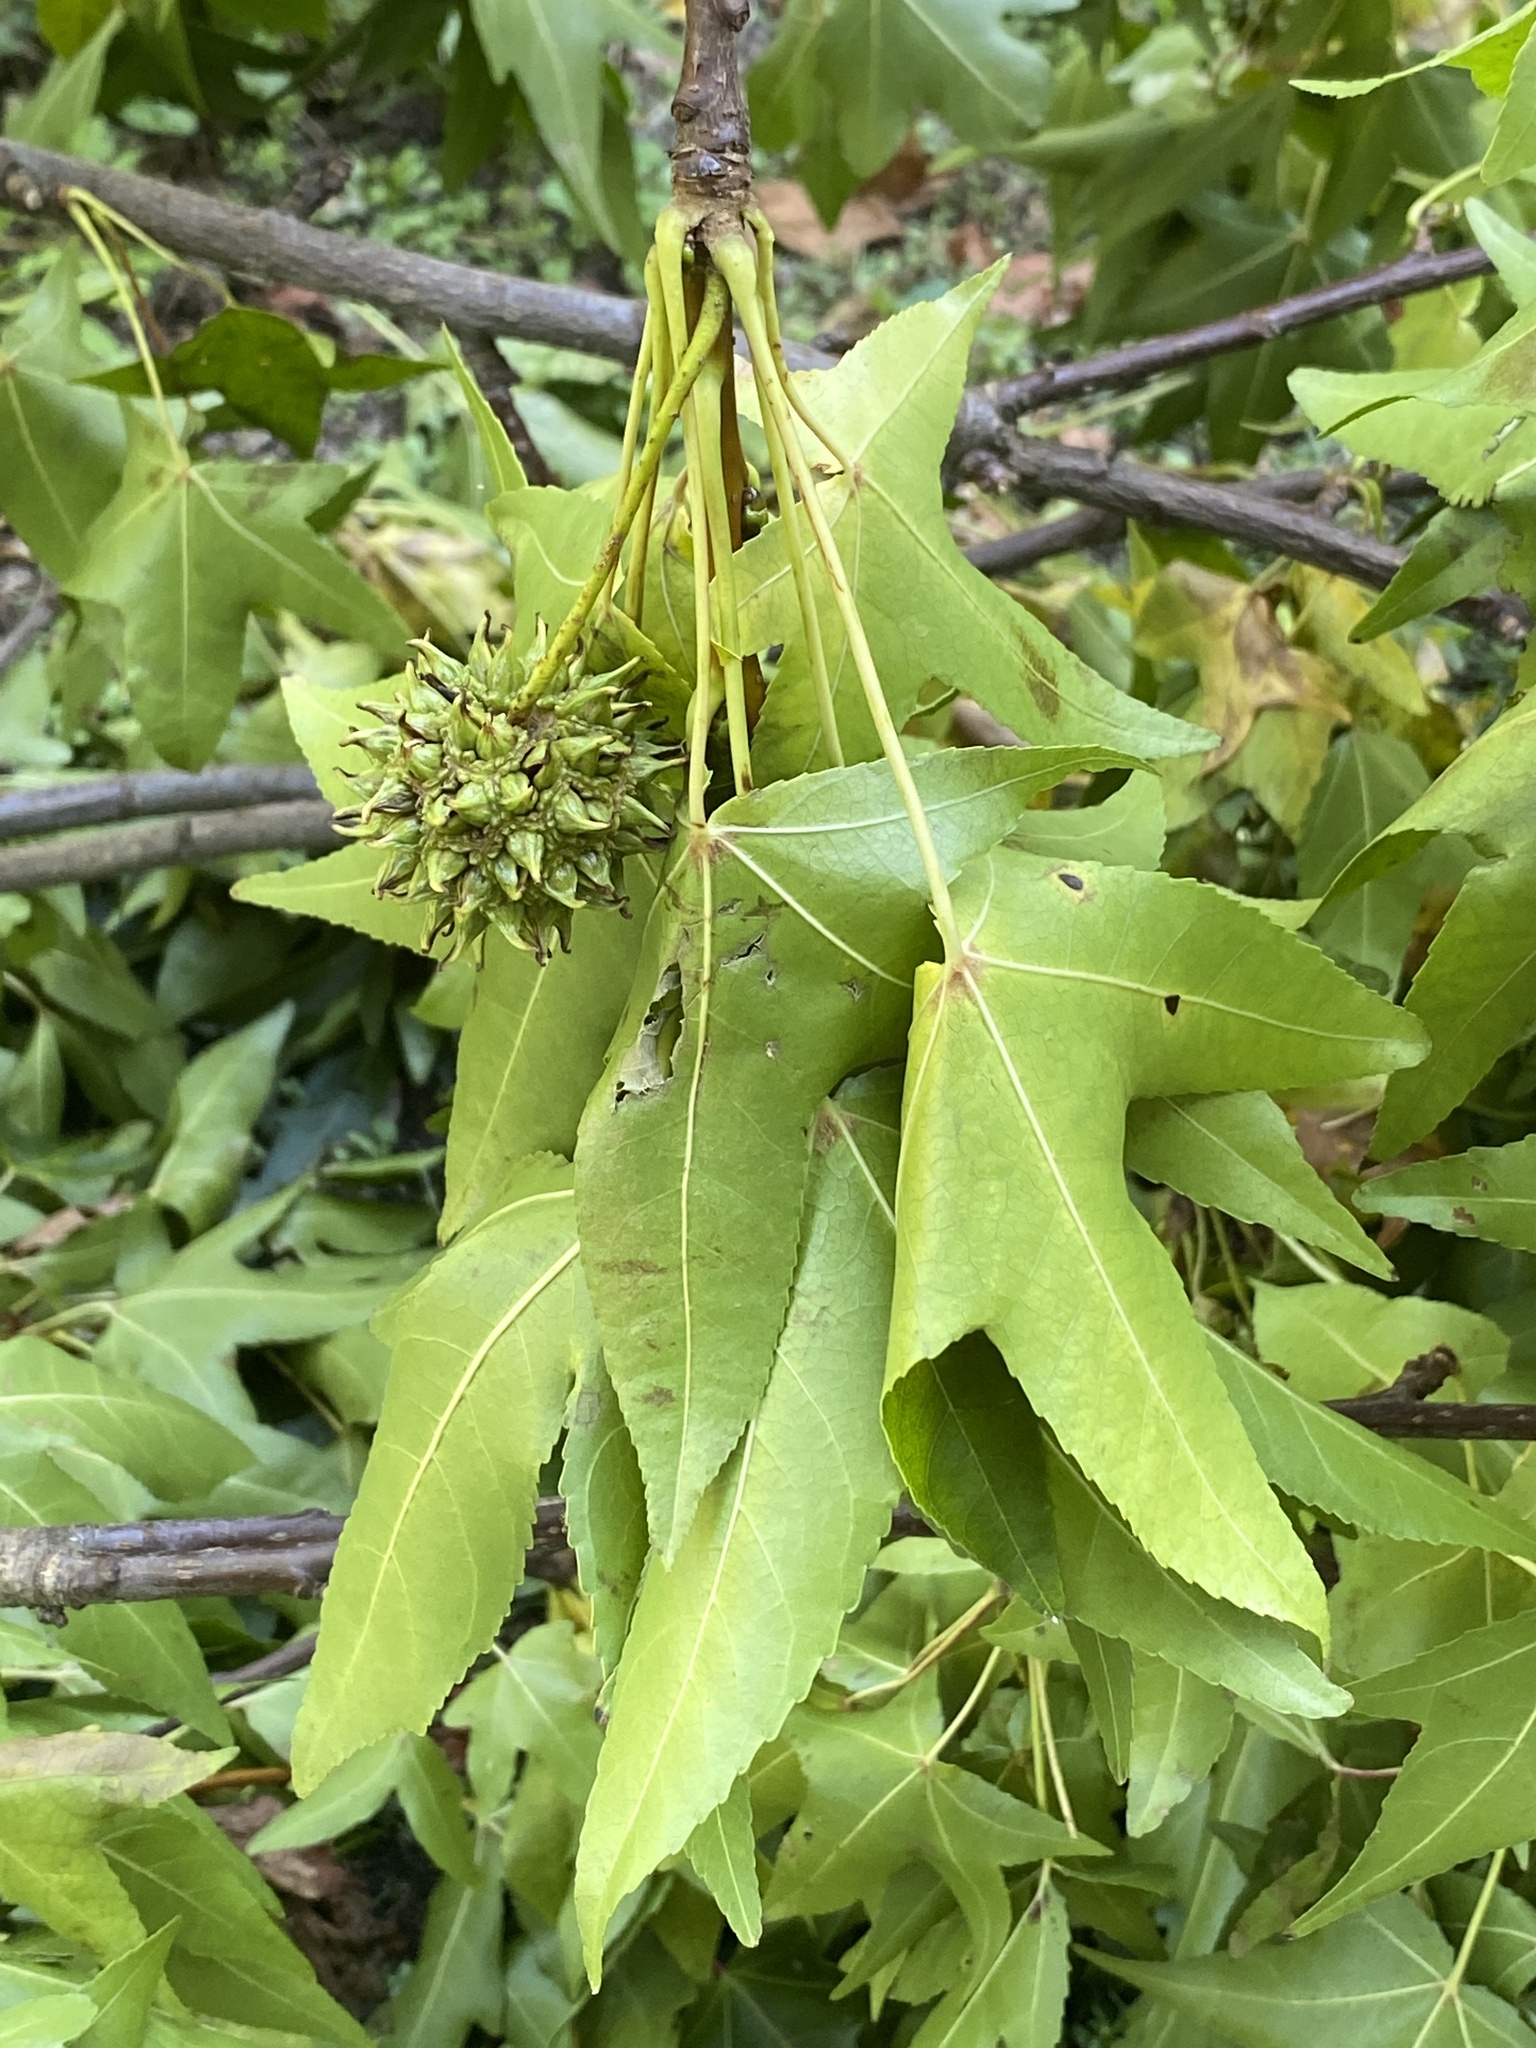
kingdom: Plantae
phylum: Tracheophyta
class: Magnoliopsida
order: Saxifragales
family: Altingiaceae
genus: Liquidambar
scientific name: Liquidambar styraciflua
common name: Sweet gum
